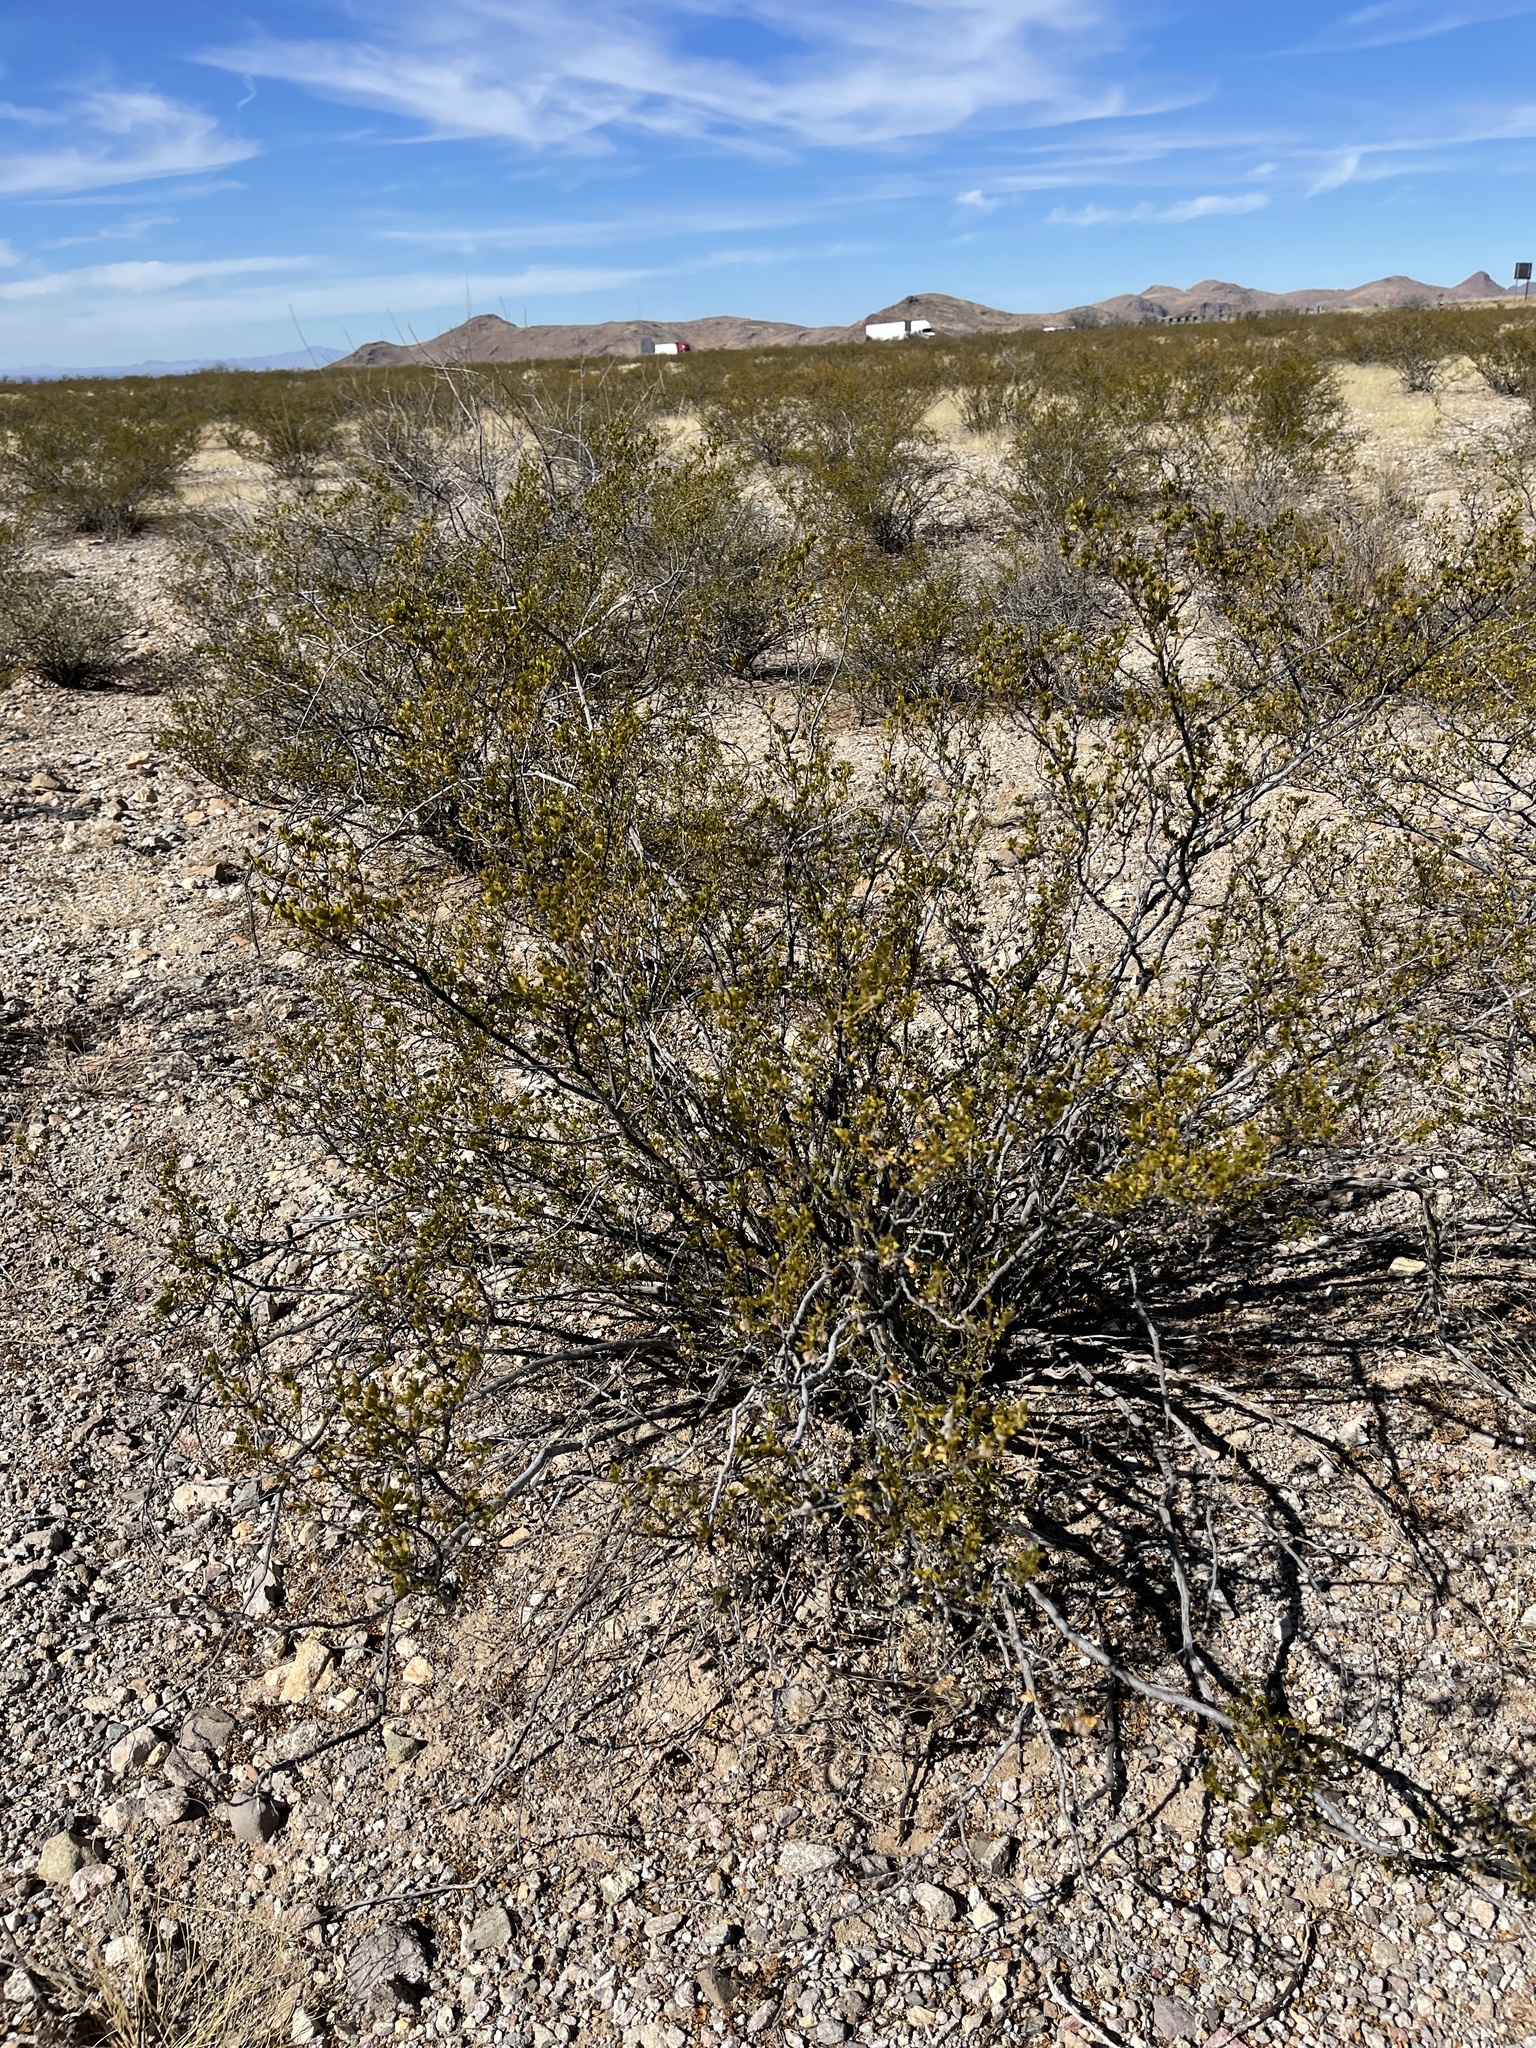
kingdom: Plantae
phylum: Tracheophyta
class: Magnoliopsida
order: Zygophyllales
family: Zygophyllaceae
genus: Larrea
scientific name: Larrea tridentata
